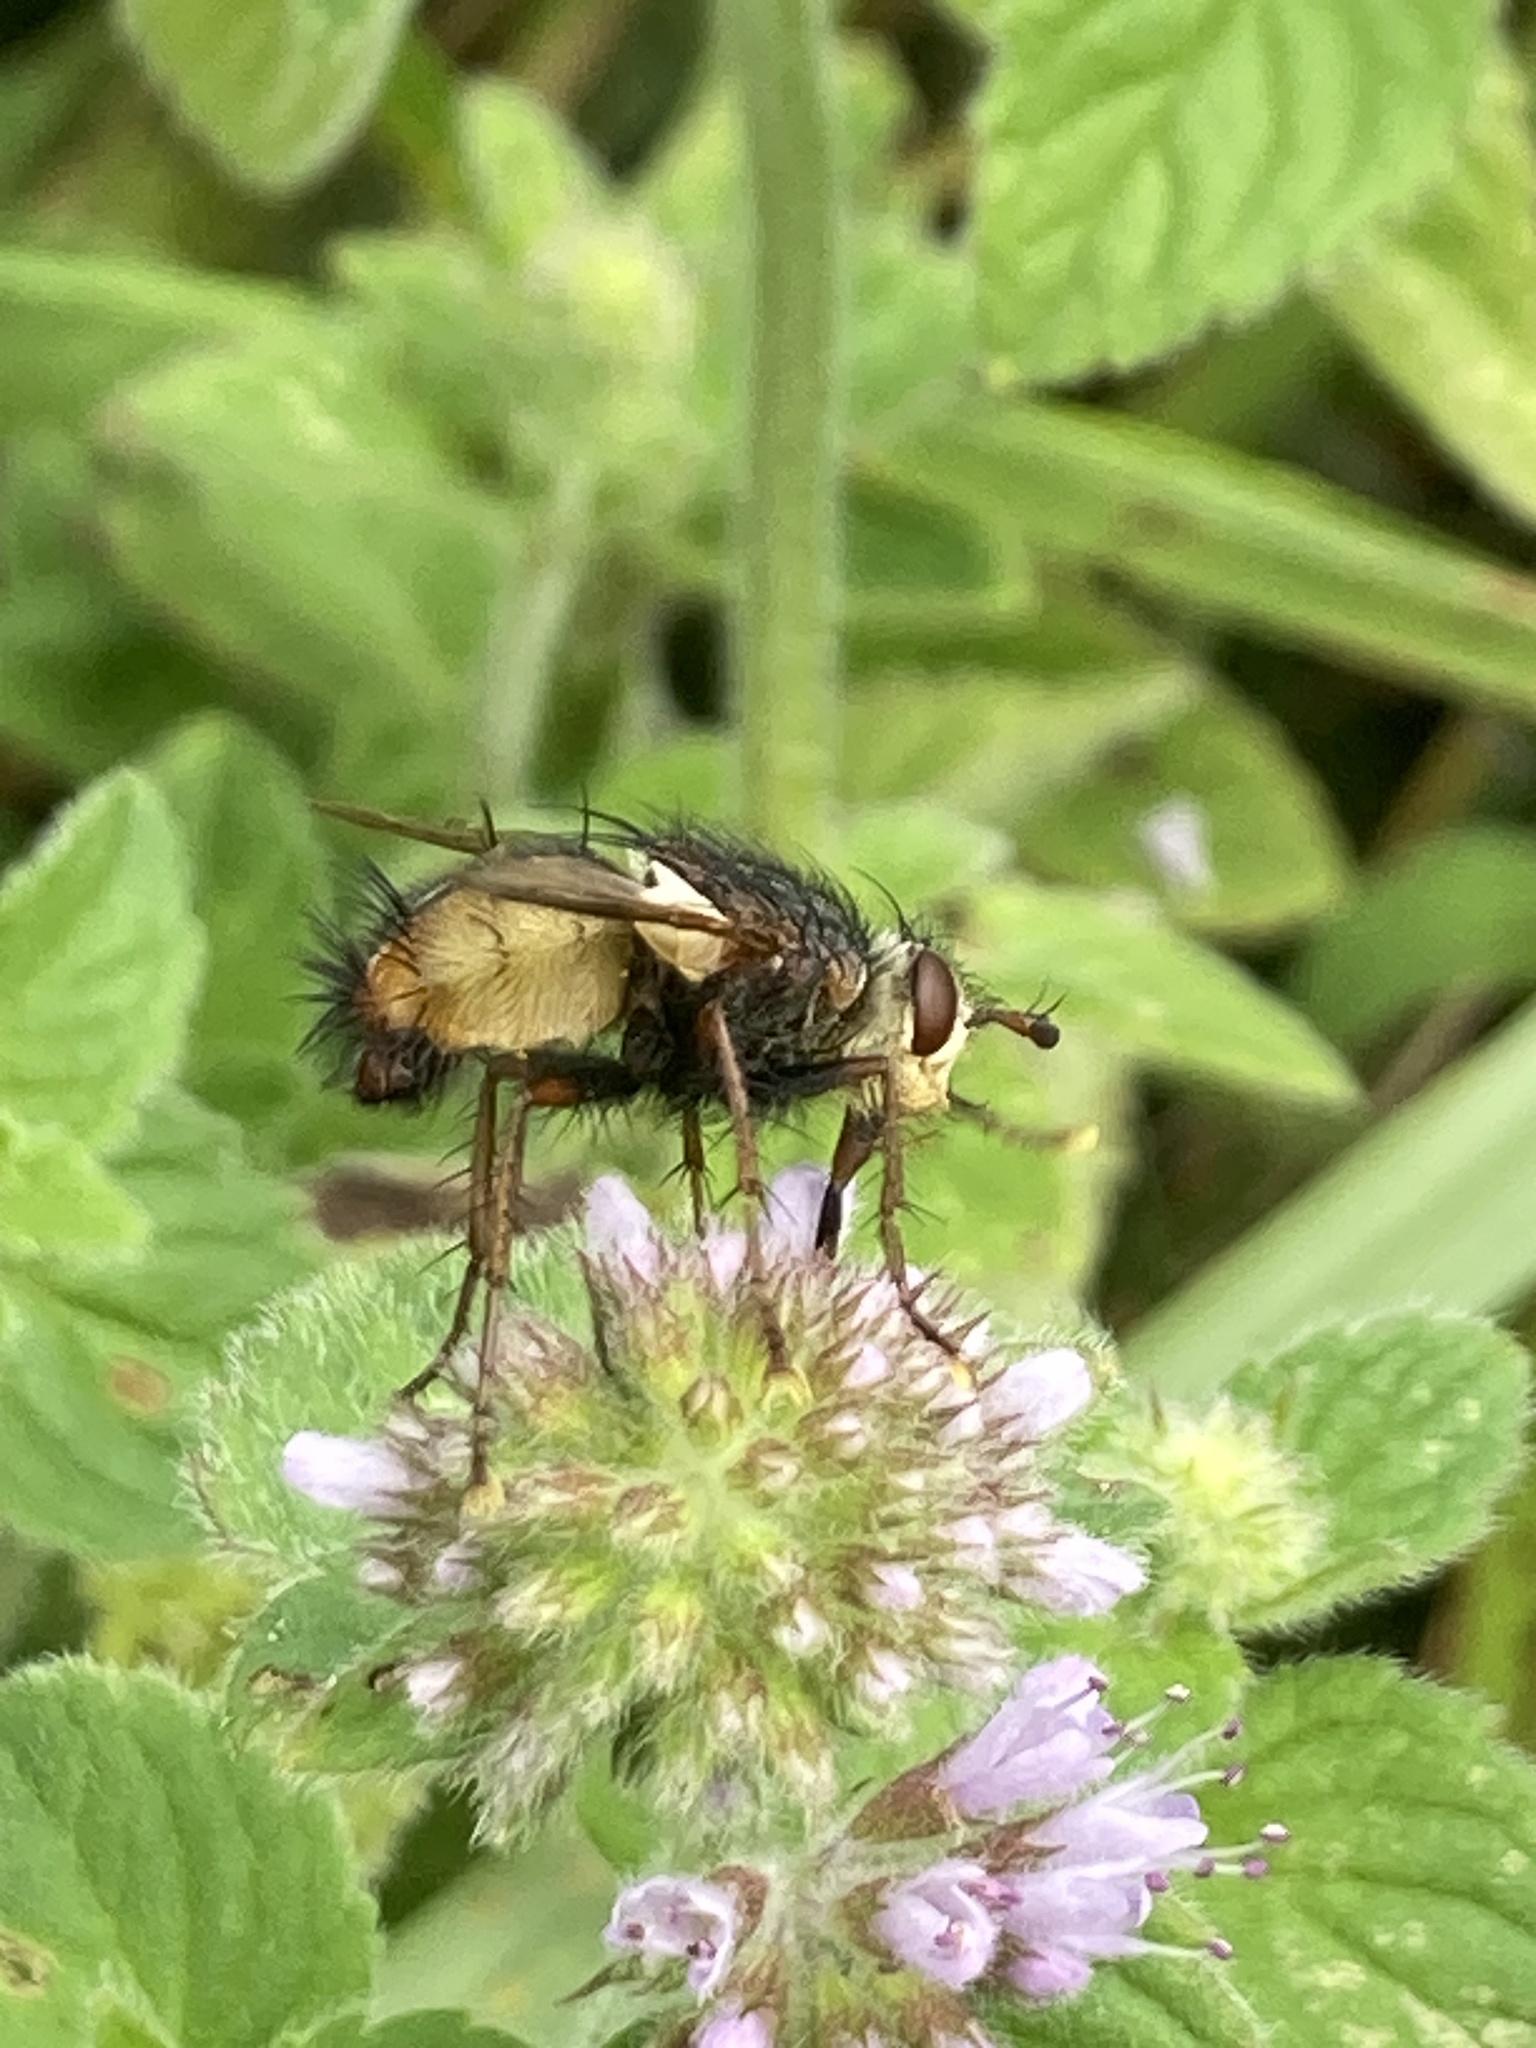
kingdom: Animalia
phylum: Arthropoda
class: Insecta
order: Diptera
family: Tachinidae
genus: Tachina
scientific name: Tachina fera
